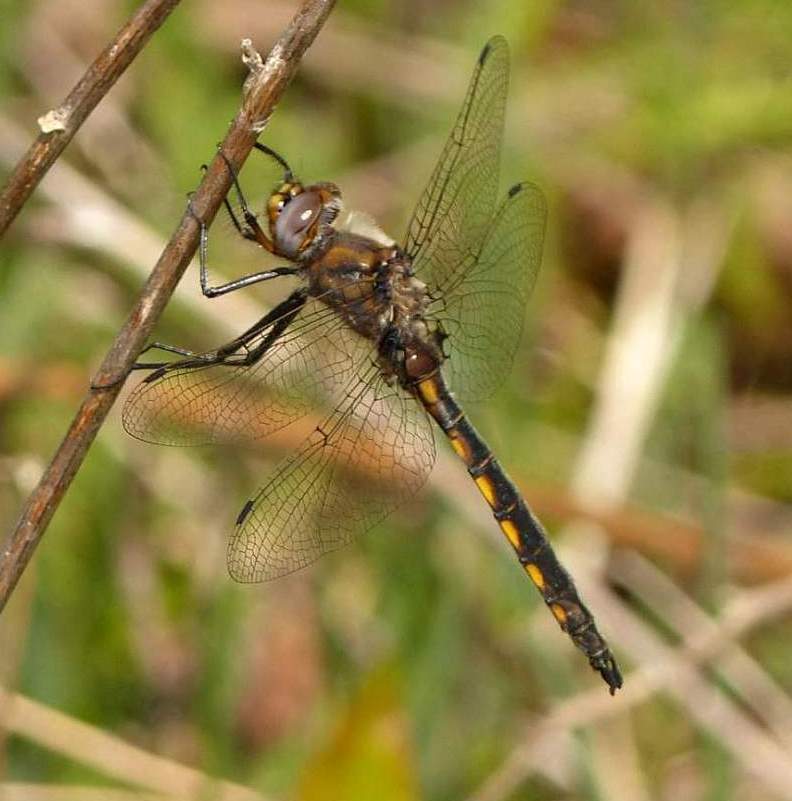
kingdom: Animalia
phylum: Arthropoda
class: Insecta
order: Odonata
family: Corduliidae
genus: Epitheca
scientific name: Epitheca canis
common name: Beaverpond baskettail
